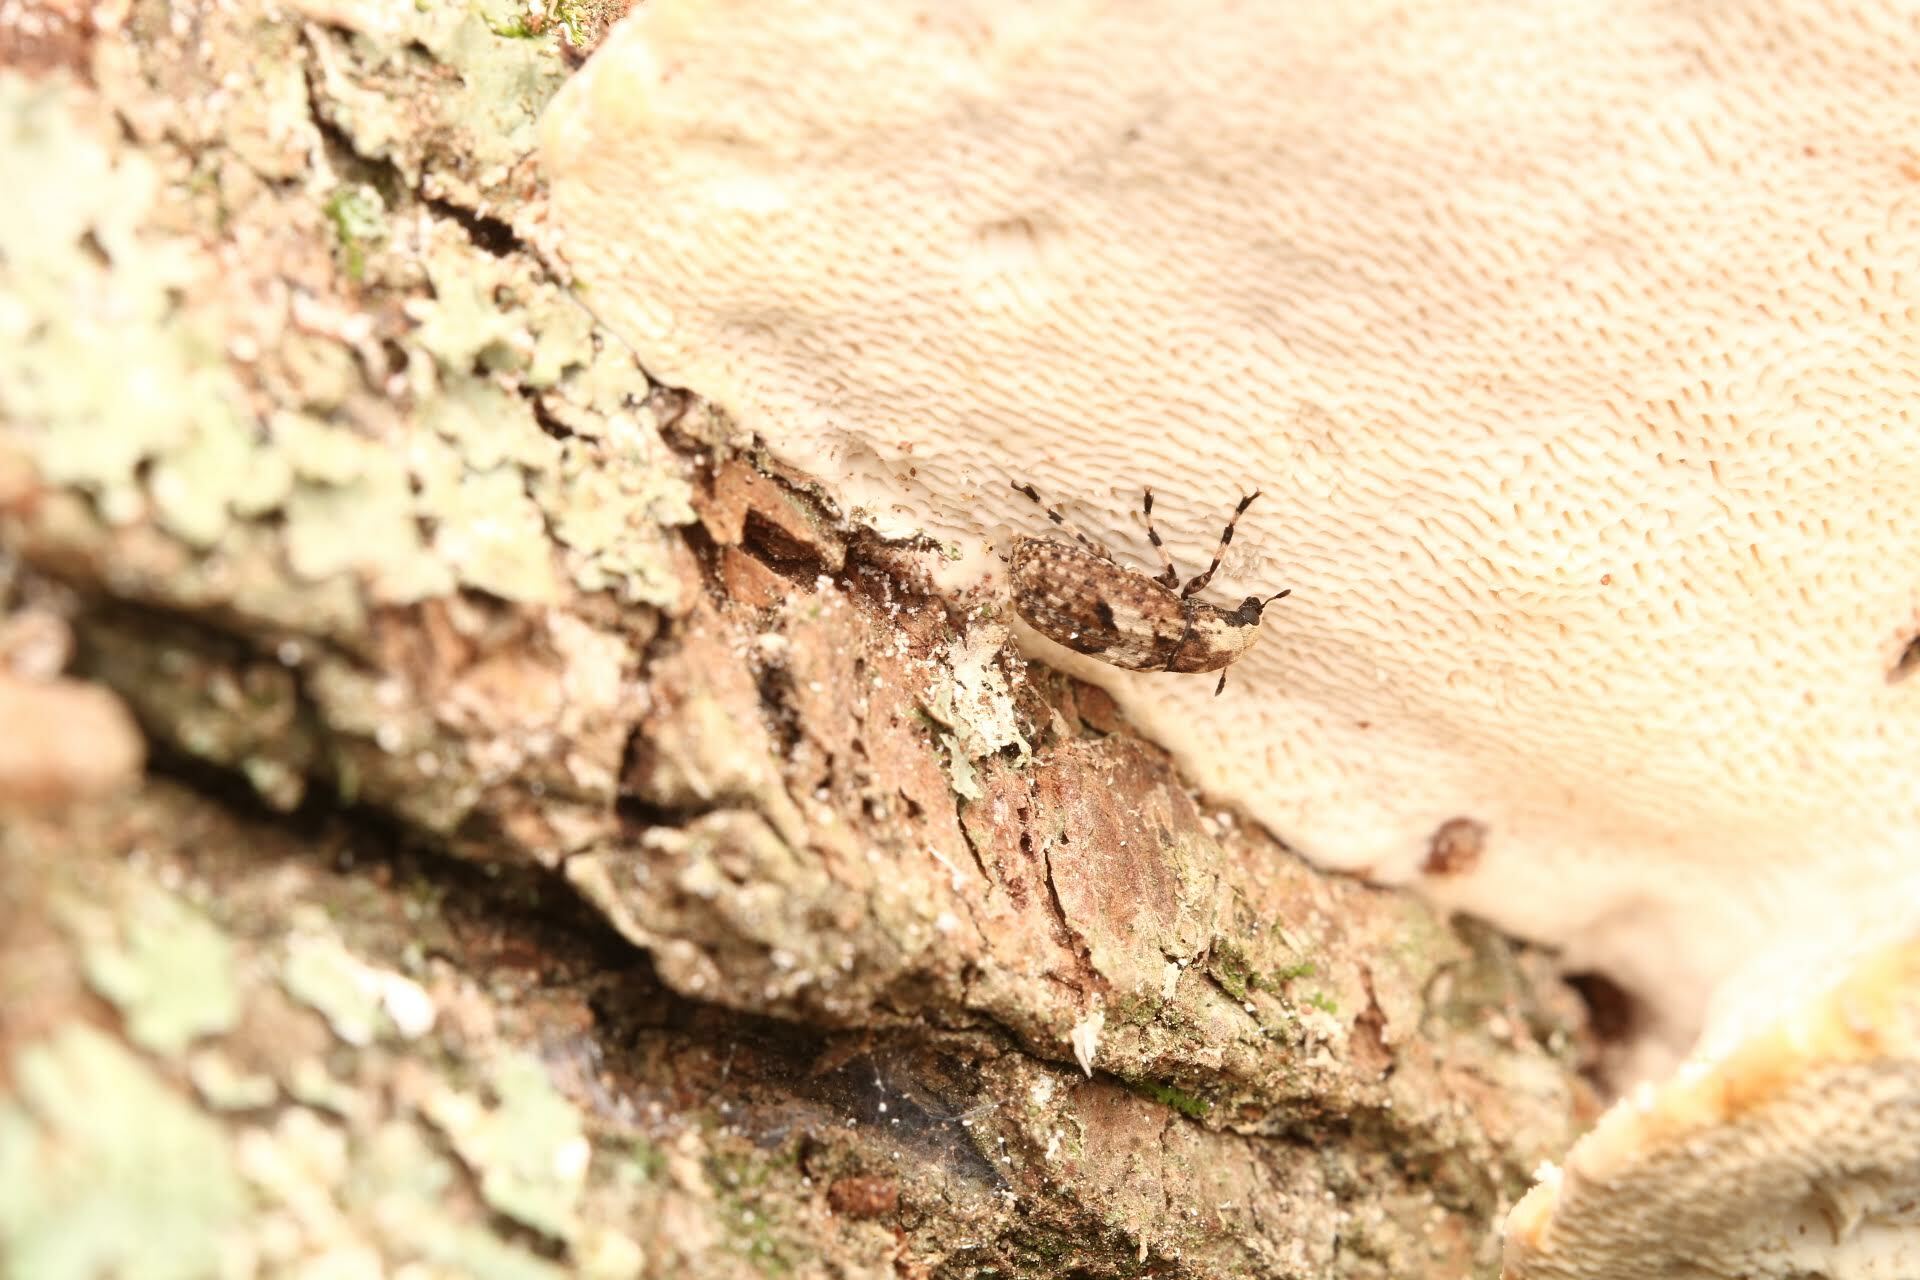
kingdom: Animalia
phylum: Arthropoda
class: Insecta
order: Coleoptera
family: Anthribidae
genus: Euparius
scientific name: Euparius marmoreus
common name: Marbled fungus weevil
